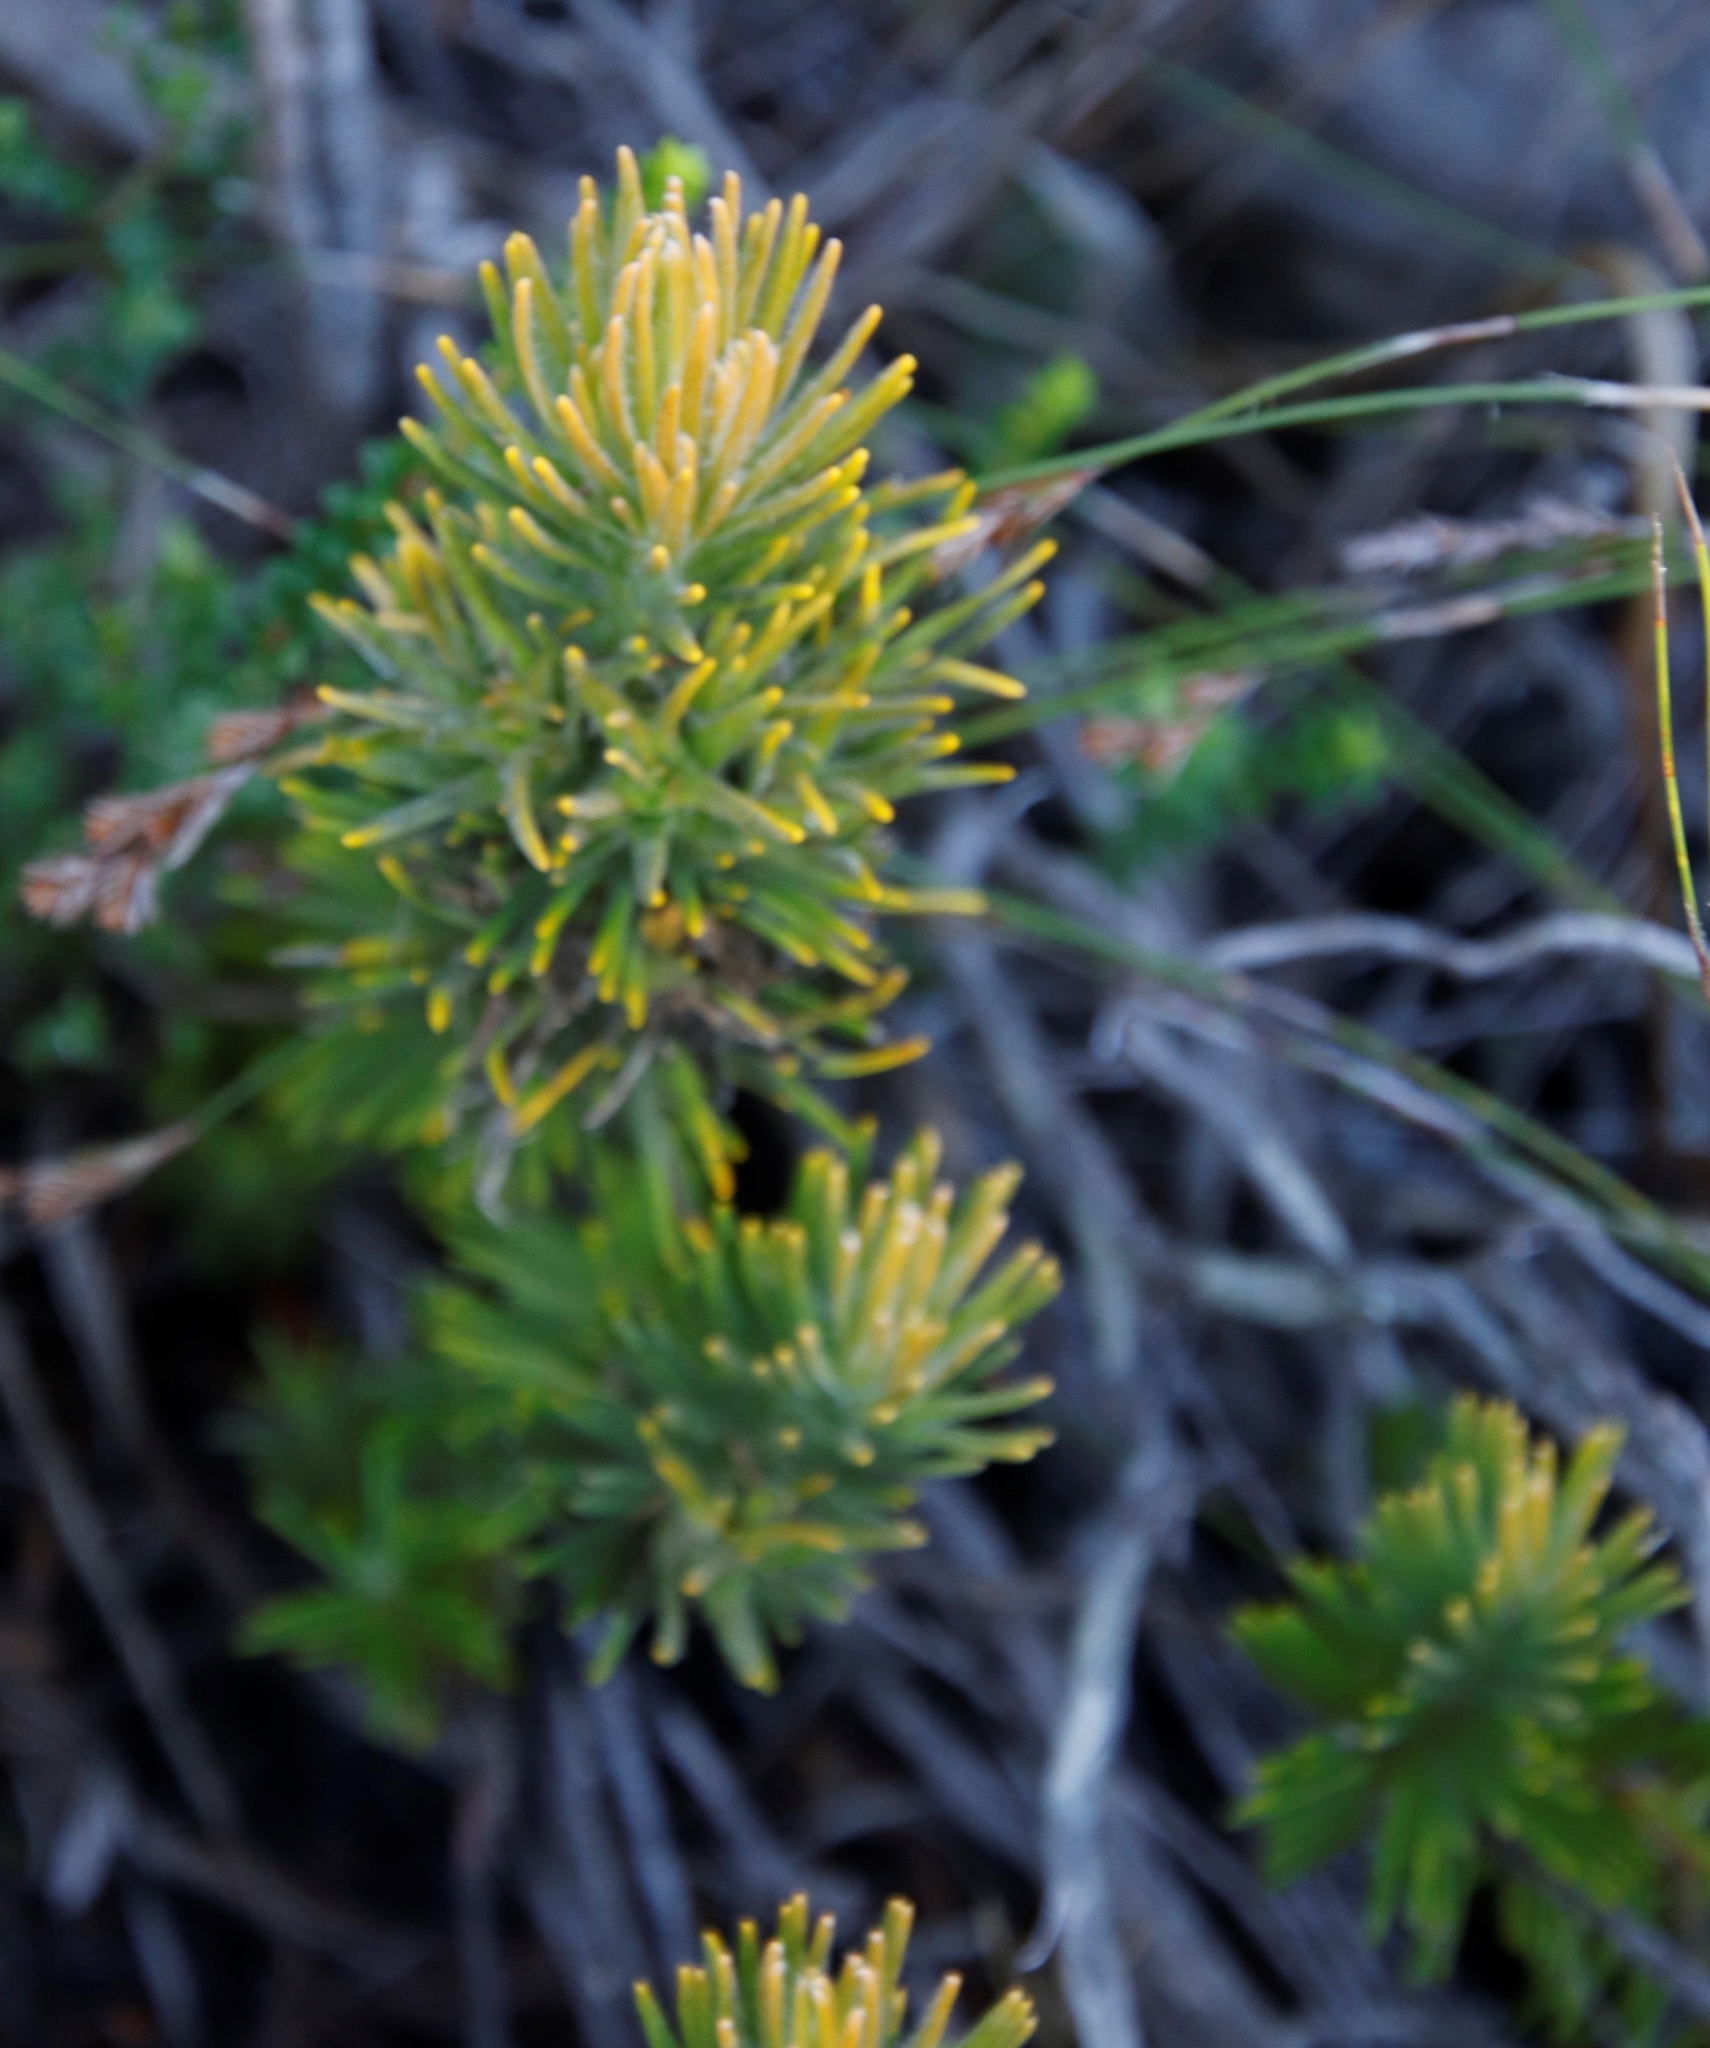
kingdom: Plantae
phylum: Tracheophyta
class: Magnoliopsida
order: Lamiales
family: Stilbaceae
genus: Retzia
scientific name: Retzia capensis
